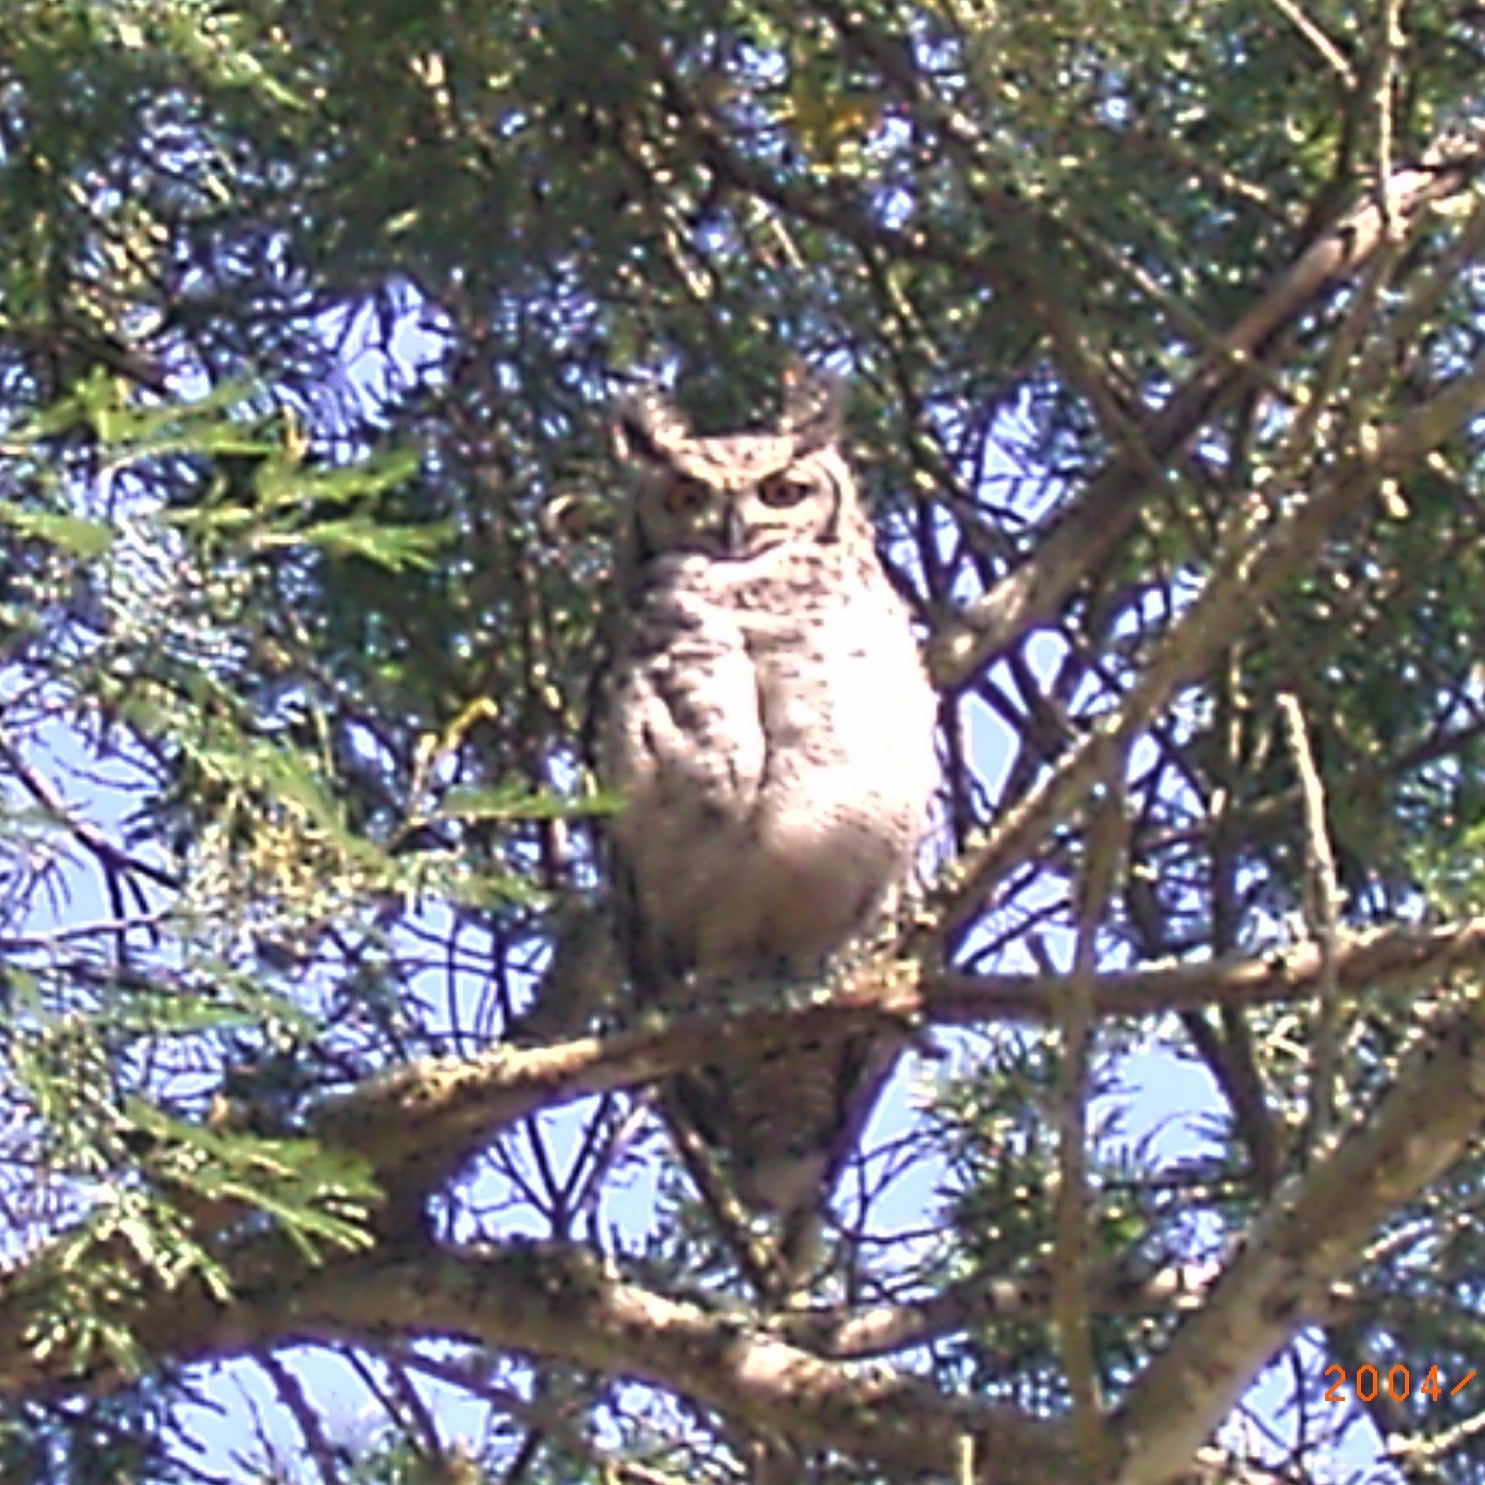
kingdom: Animalia
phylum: Chordata
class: Aves
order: Strigiformes
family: Strigidae
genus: Bubo
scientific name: Bubo africanus
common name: Spotted eagle-owl
